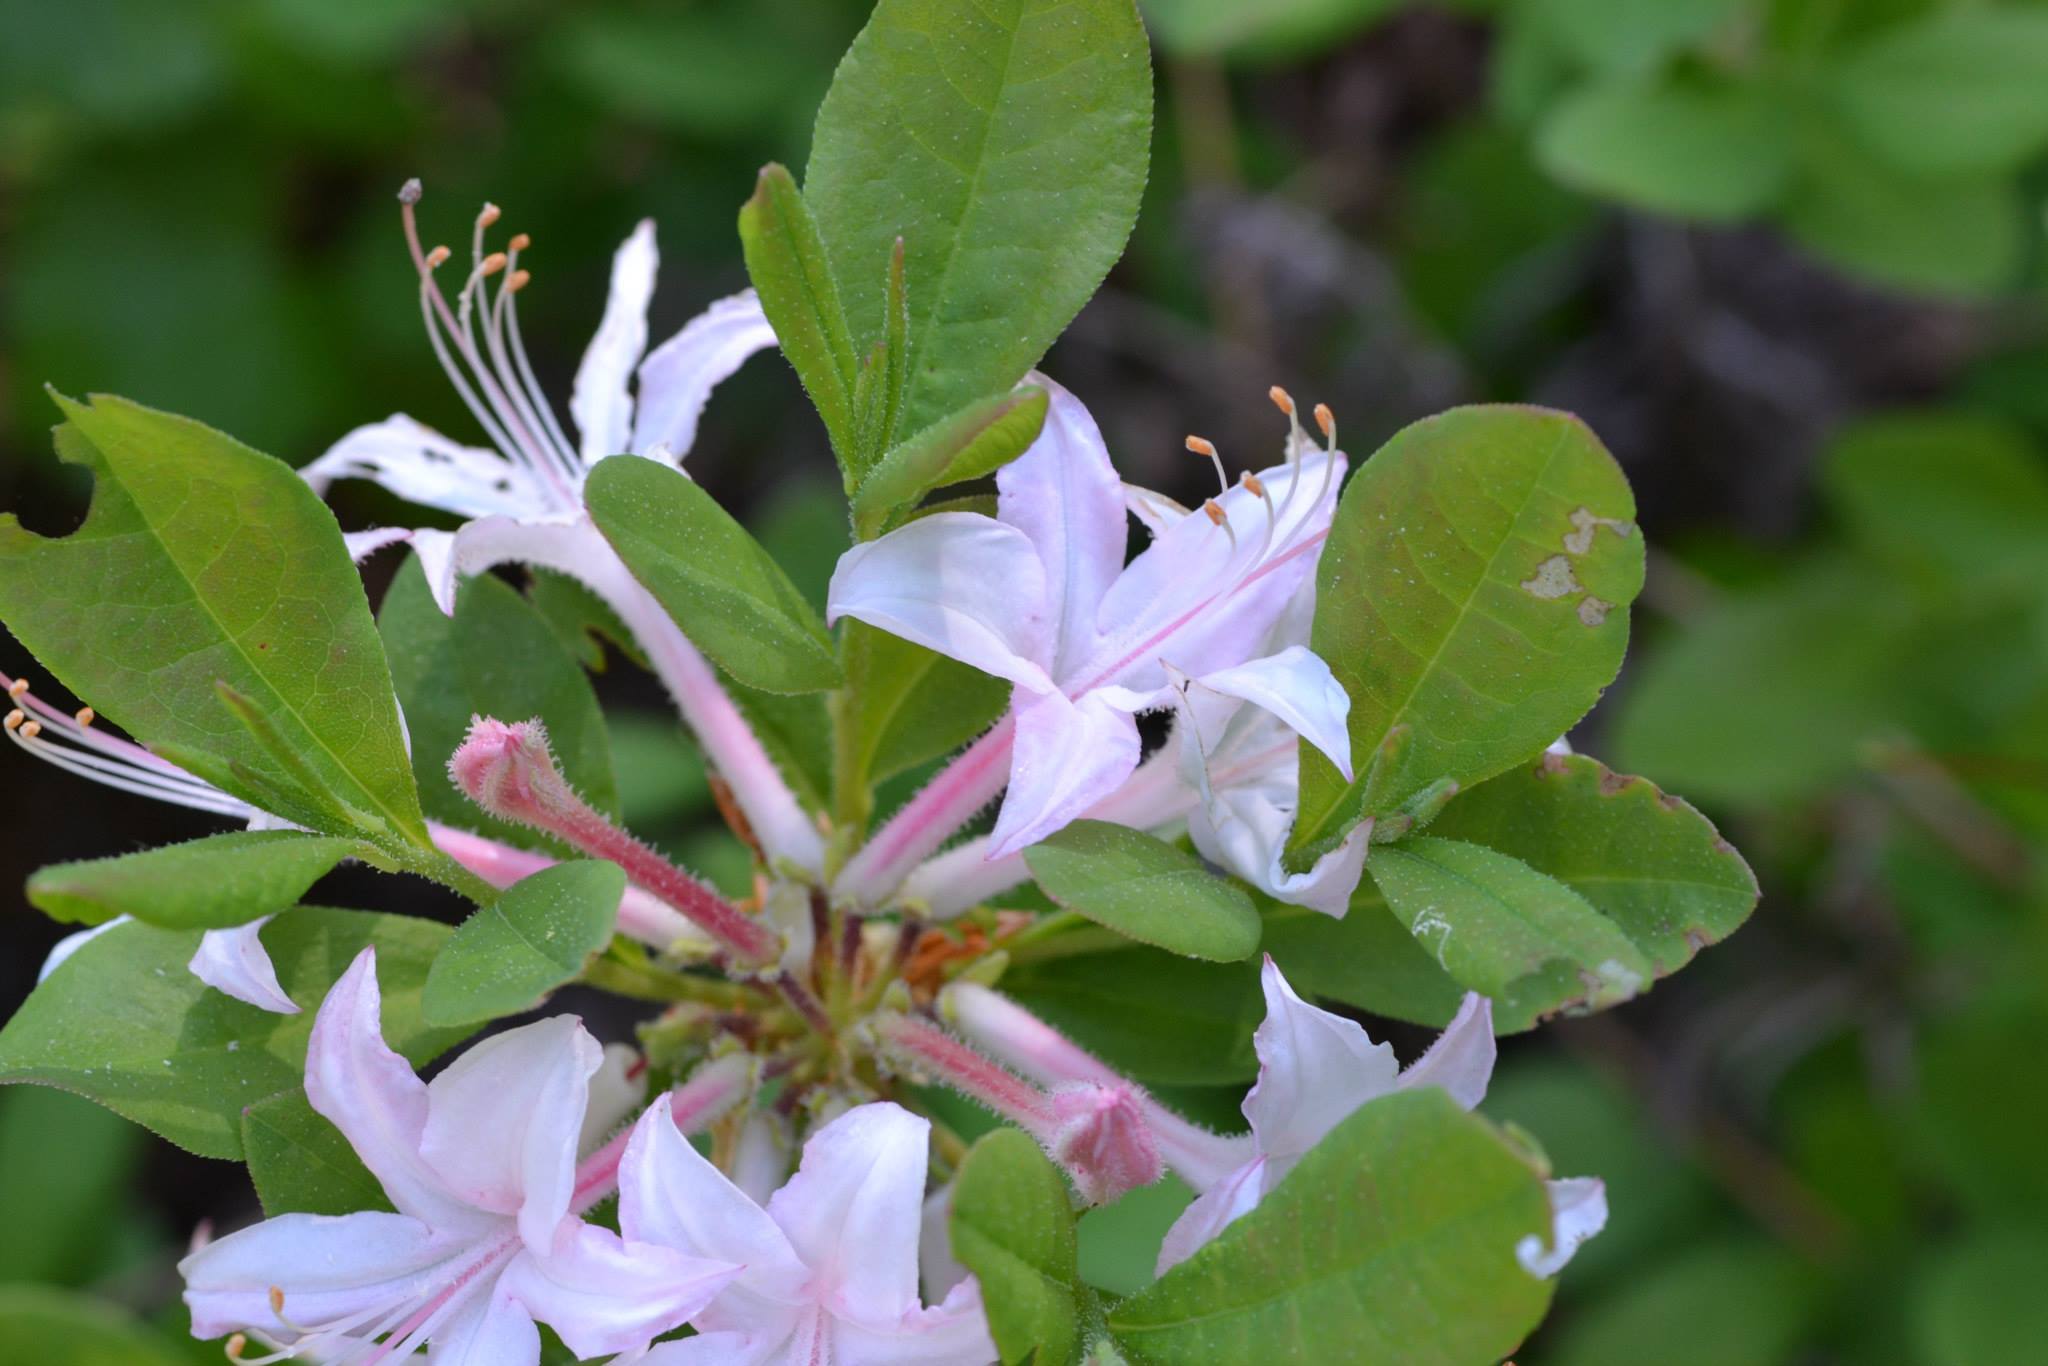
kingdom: Plantae
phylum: Tracheophyta
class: Magnoliopsida
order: Ericales
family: Ericaceae
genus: Rhododendron
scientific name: Rhododendron atlanticum
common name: Dwarf azalea
